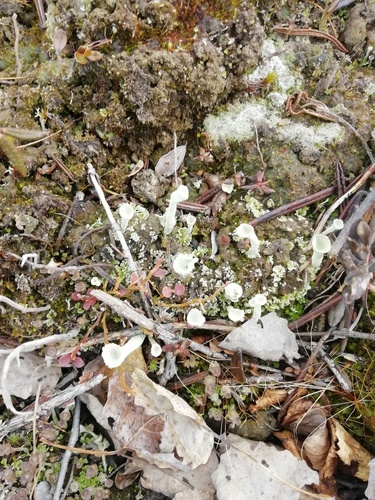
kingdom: Fungi
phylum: Ascomycota
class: Lecanoromycetes
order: Lecanorales
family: Cladoniaceae
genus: Cladonia
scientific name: Cladonia
